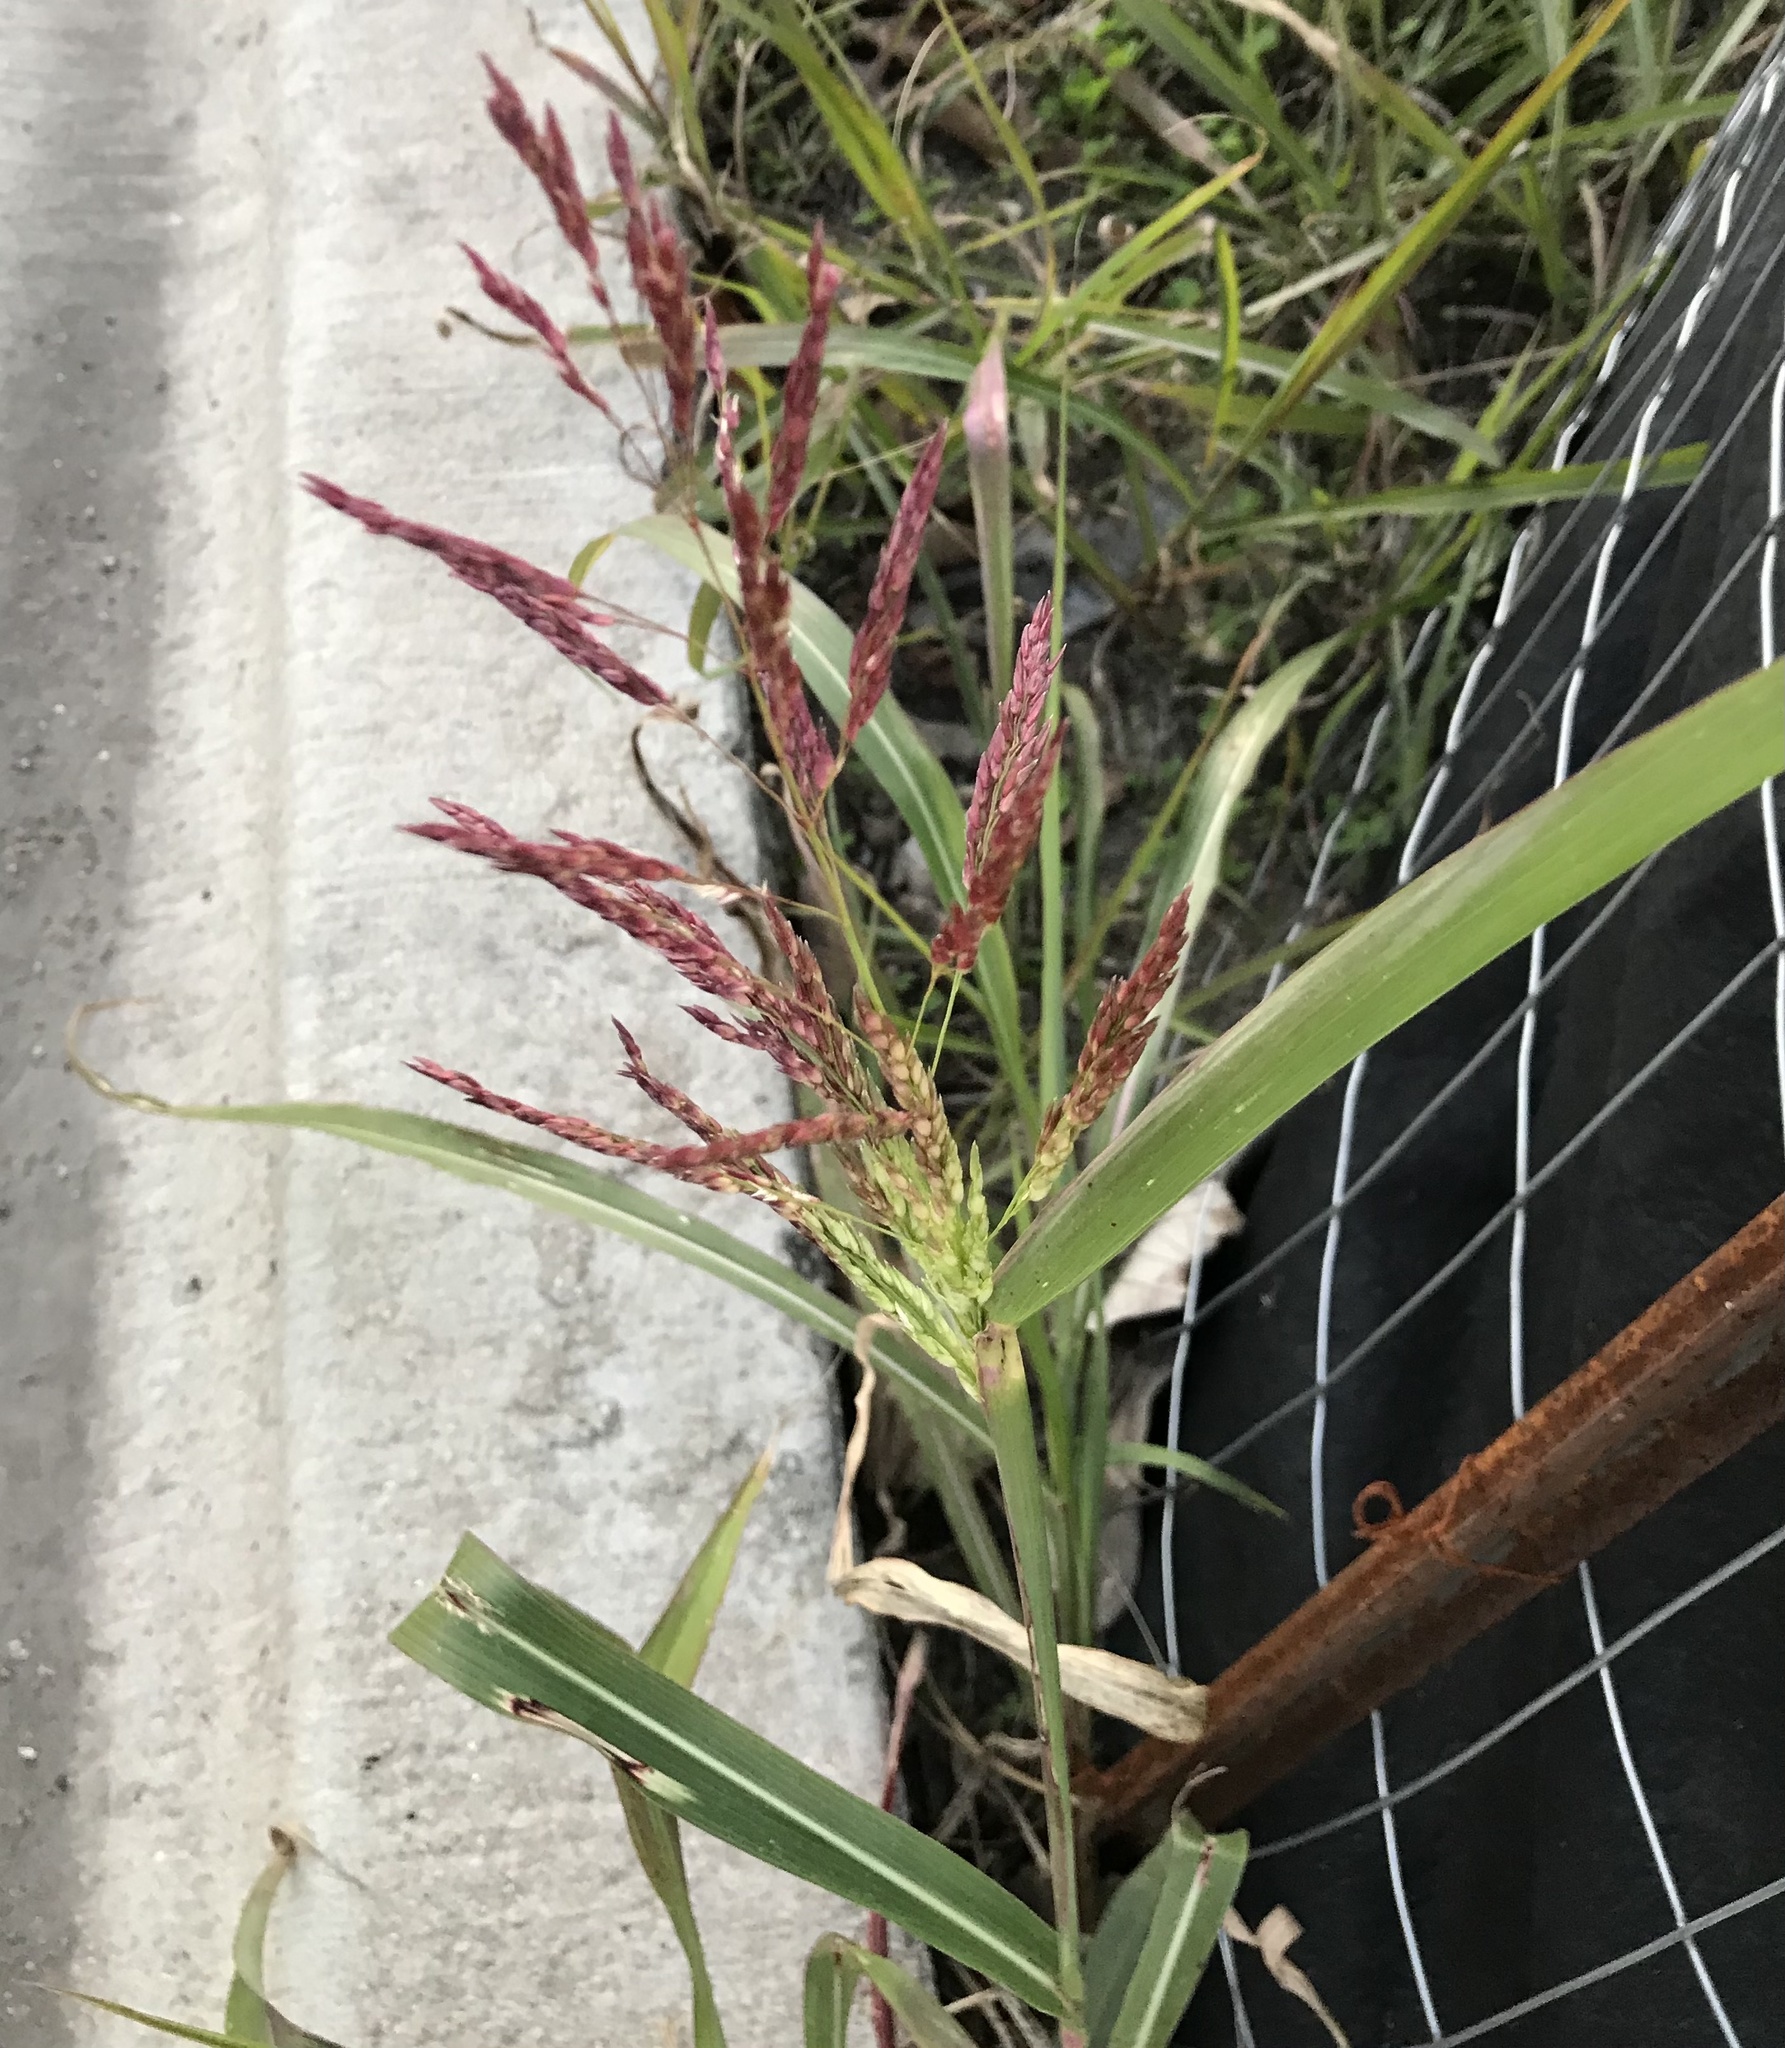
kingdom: Plantae
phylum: Tracheophyta
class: Liliopsida
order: Poales
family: Poaceae
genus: Sorghum
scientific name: Sorghum halepense
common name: Johnson-grass
